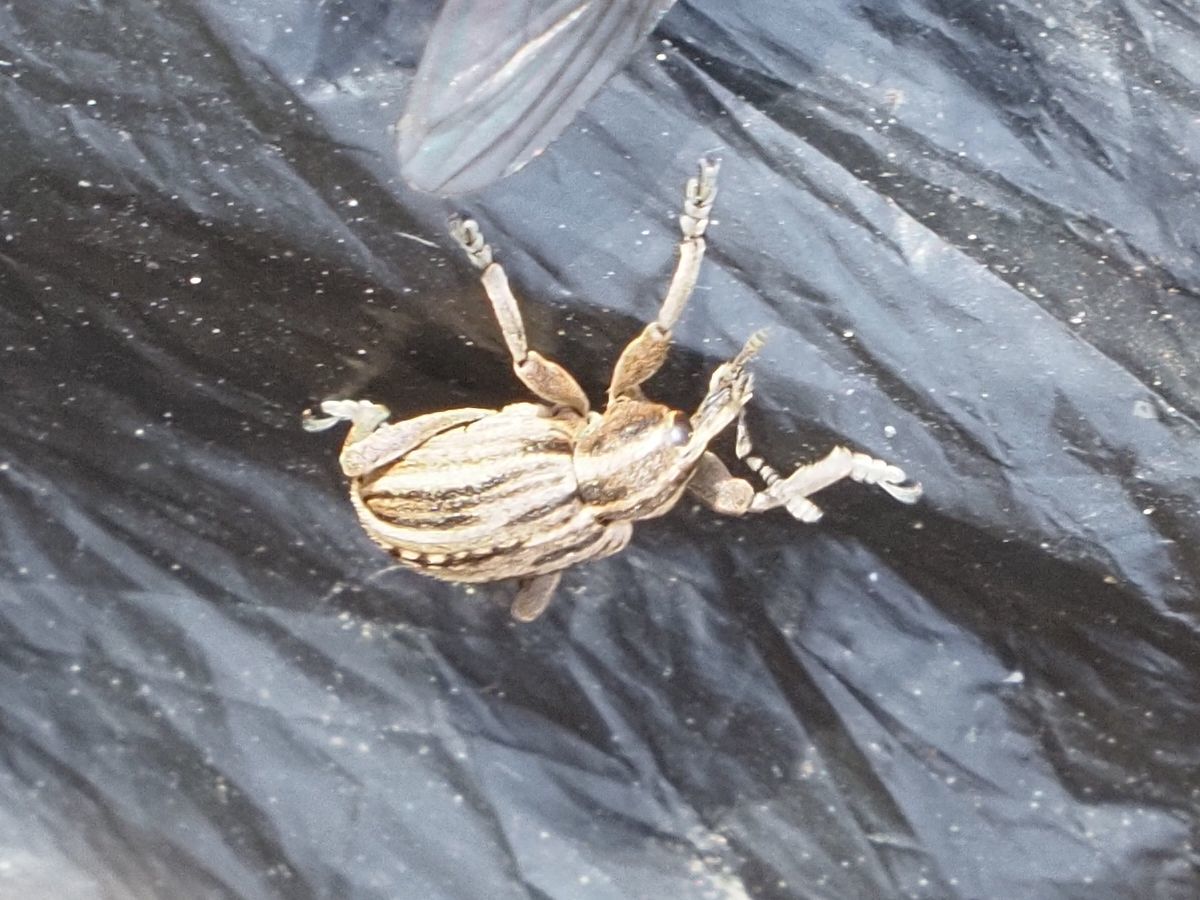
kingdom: Animalia
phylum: Arthropoda
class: Insecta
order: Coleoptera
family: Curculionidae
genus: Hypera
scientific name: Hypera arator
